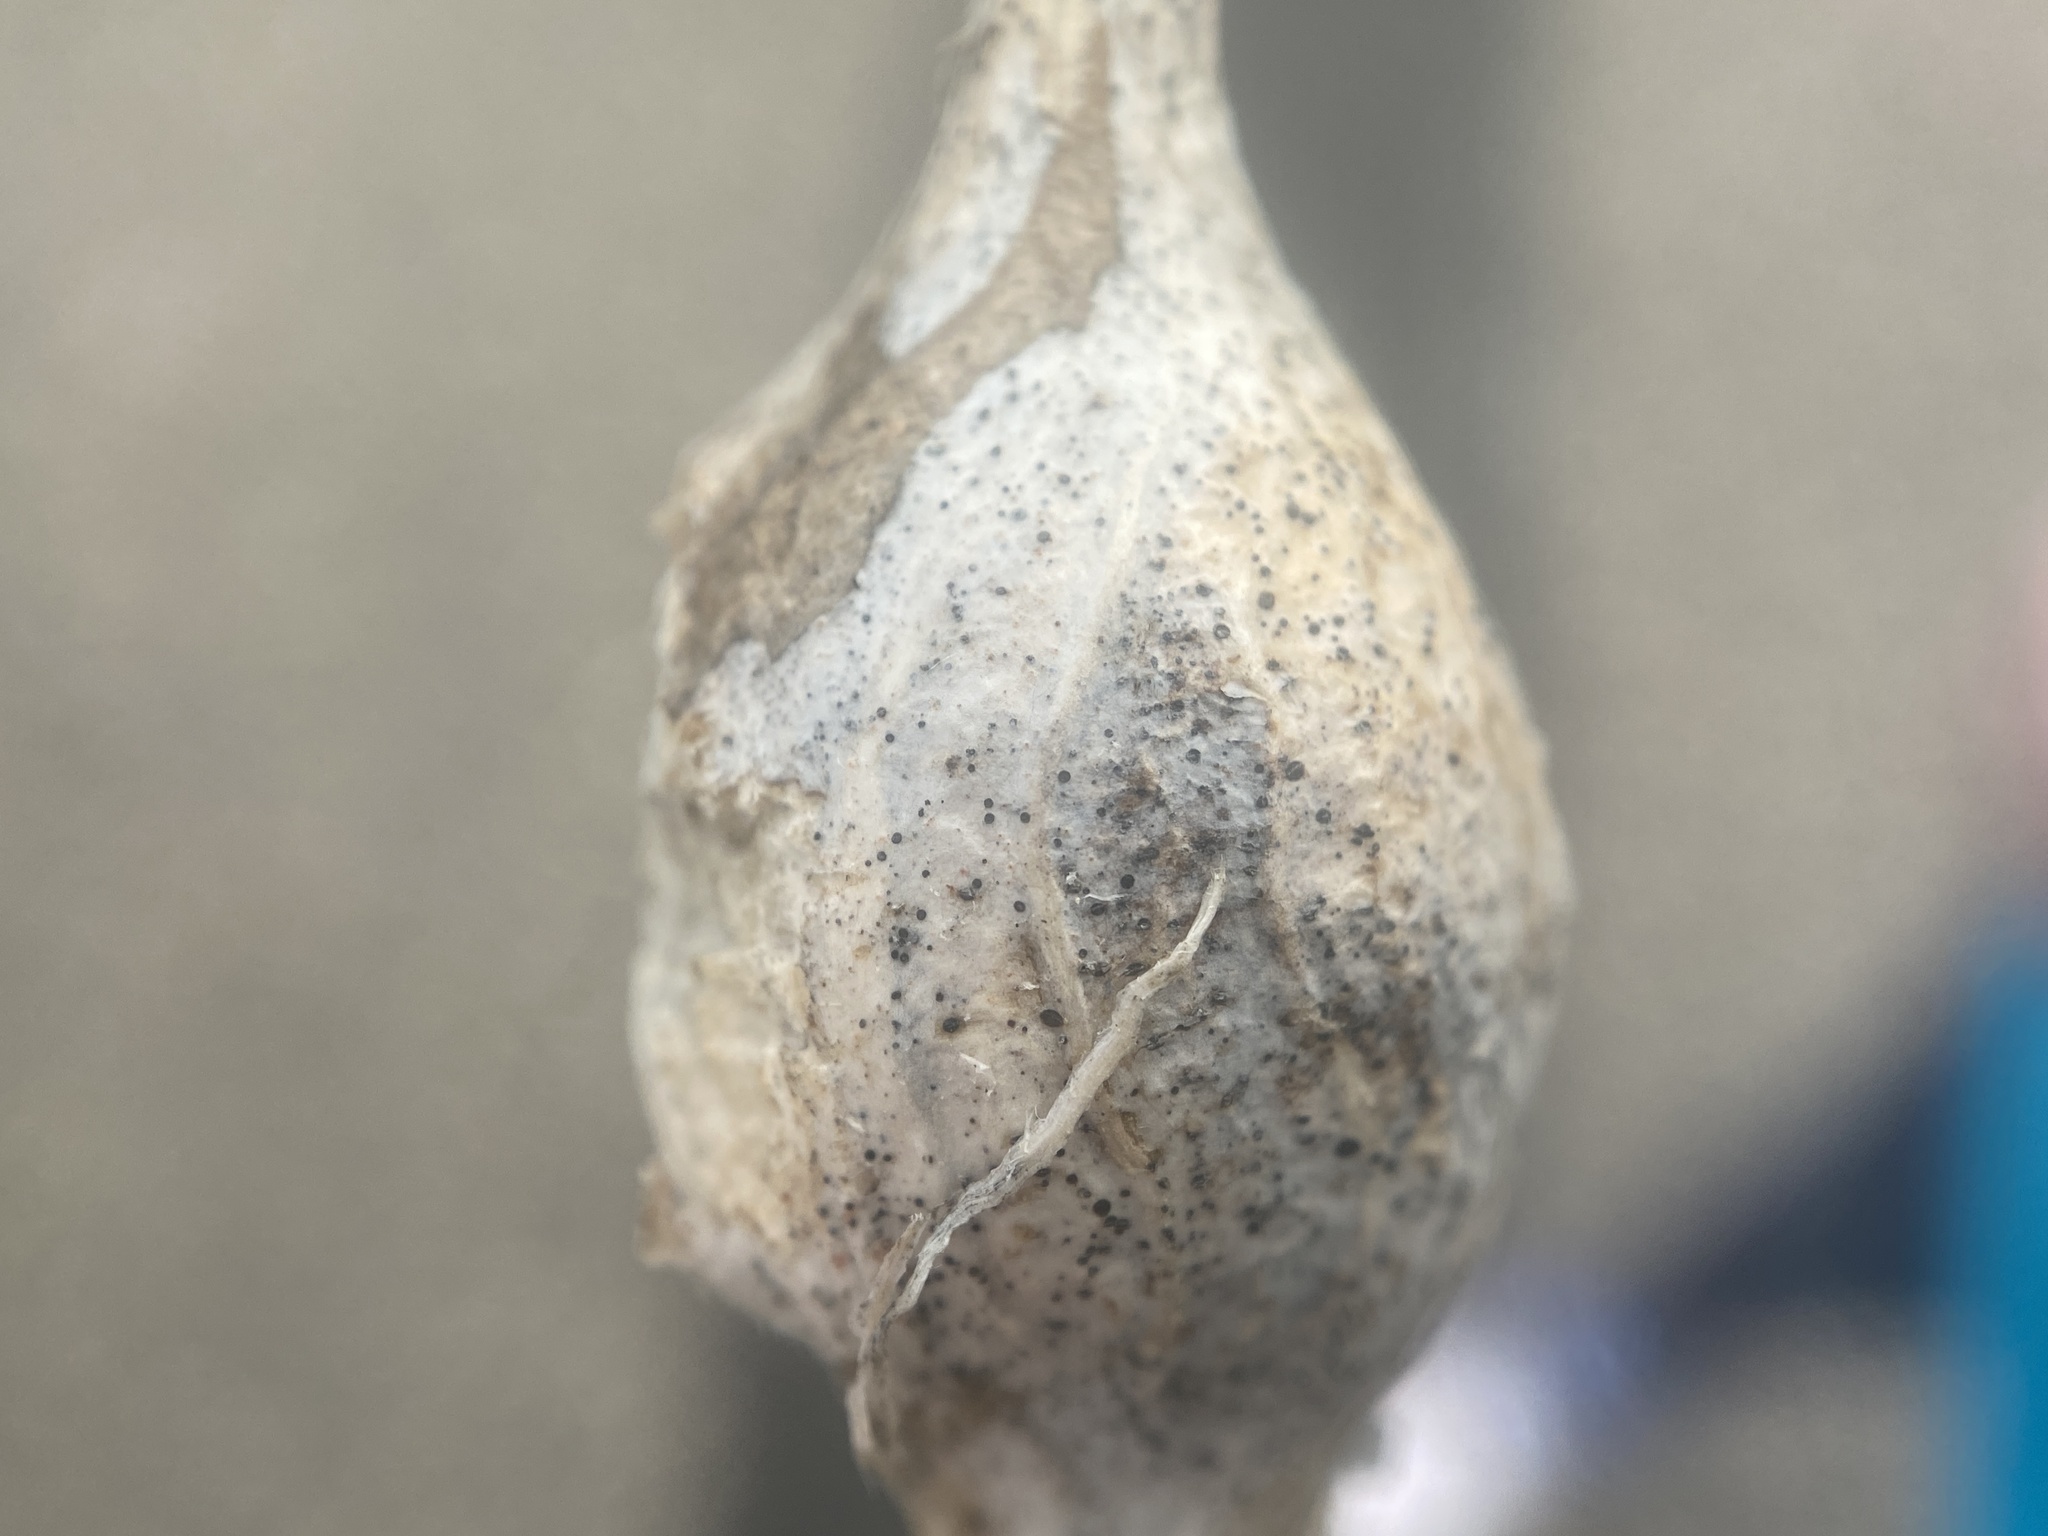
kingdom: Animalia
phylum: Arthropoda
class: Insecta
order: Diptera
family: Tephritidae
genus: Eurosta
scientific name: Eurosta solidaginis
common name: Goldenrod gall fly
